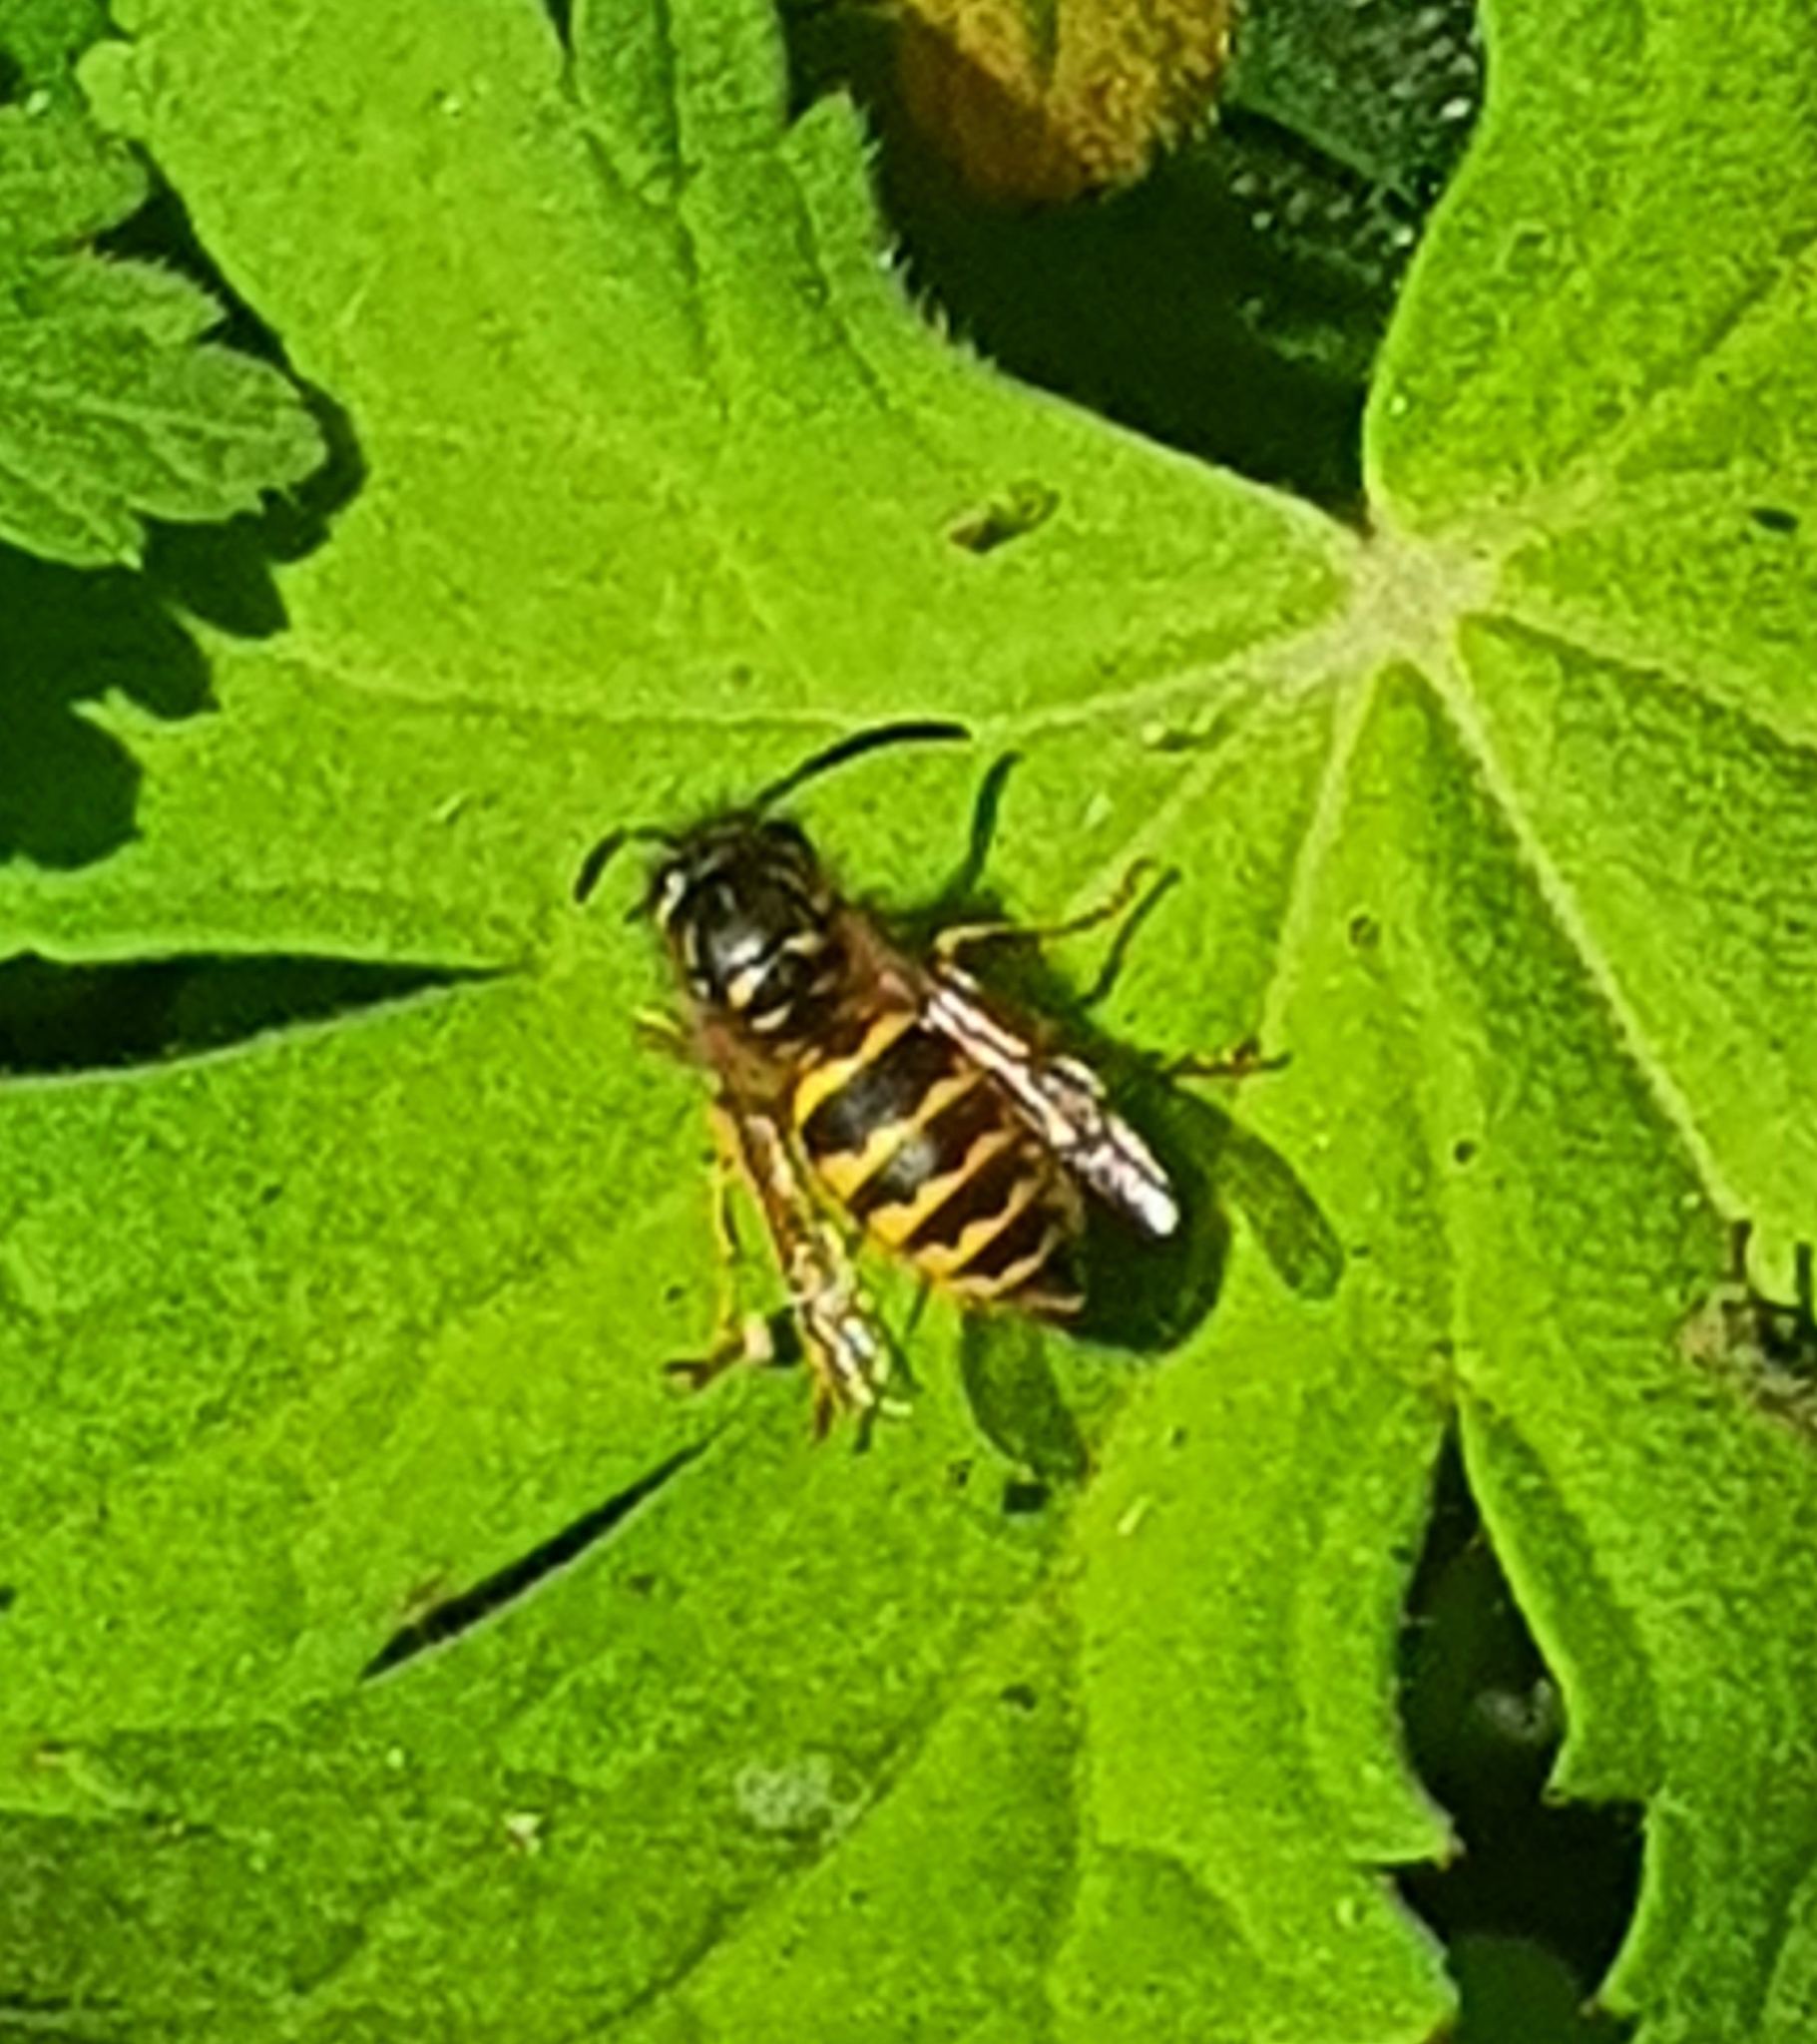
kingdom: Animalia
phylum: Arthropoda
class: Insecta
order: Hymenoptera
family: Vespidae
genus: Vespula
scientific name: Vespula vulgaris
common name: Common wasp
